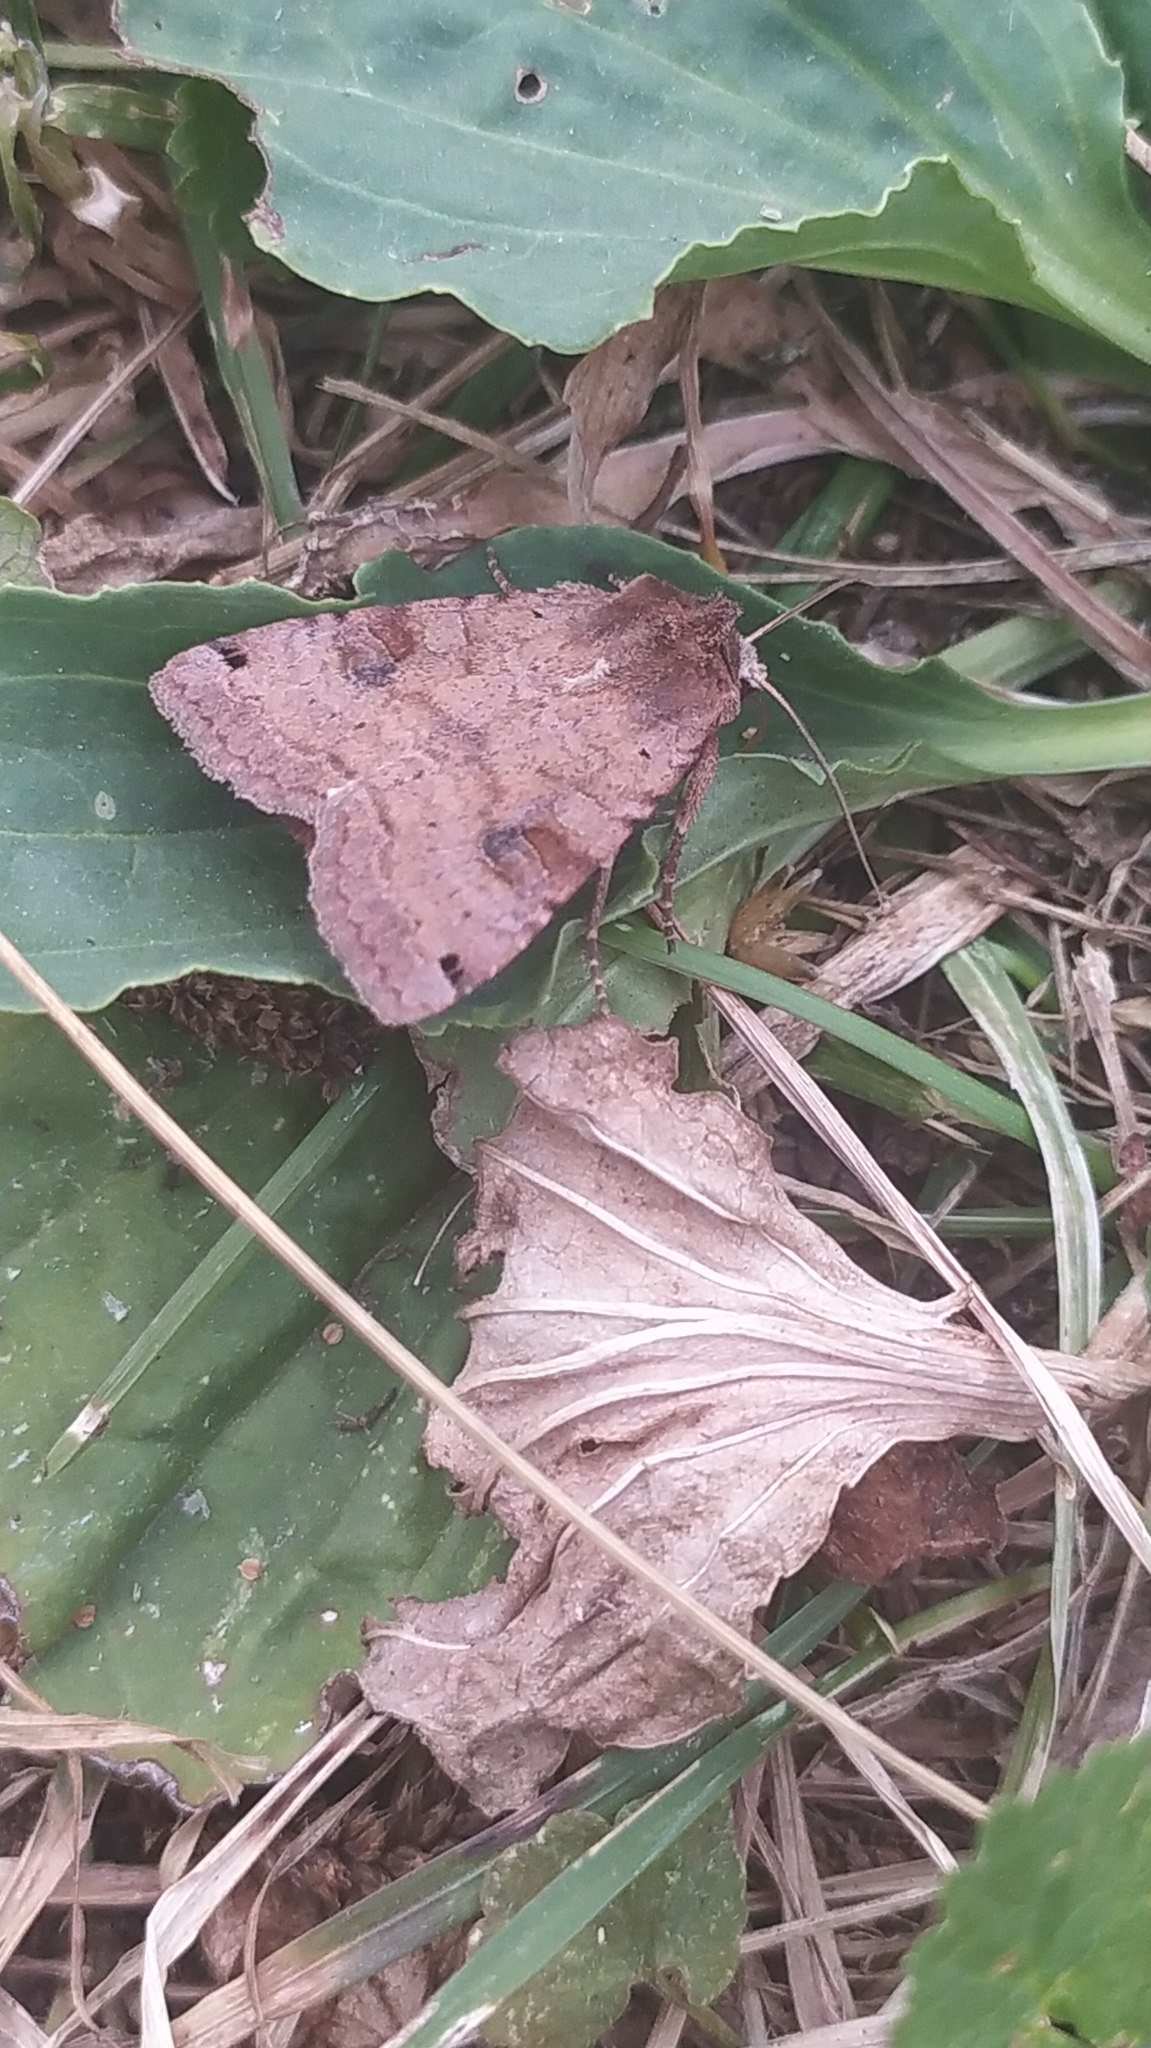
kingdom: Animalia
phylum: Arthropoda
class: Insecta
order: Lepidoptera
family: Noctuidae
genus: Xestia
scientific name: Xestia baja
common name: Dotted clay
